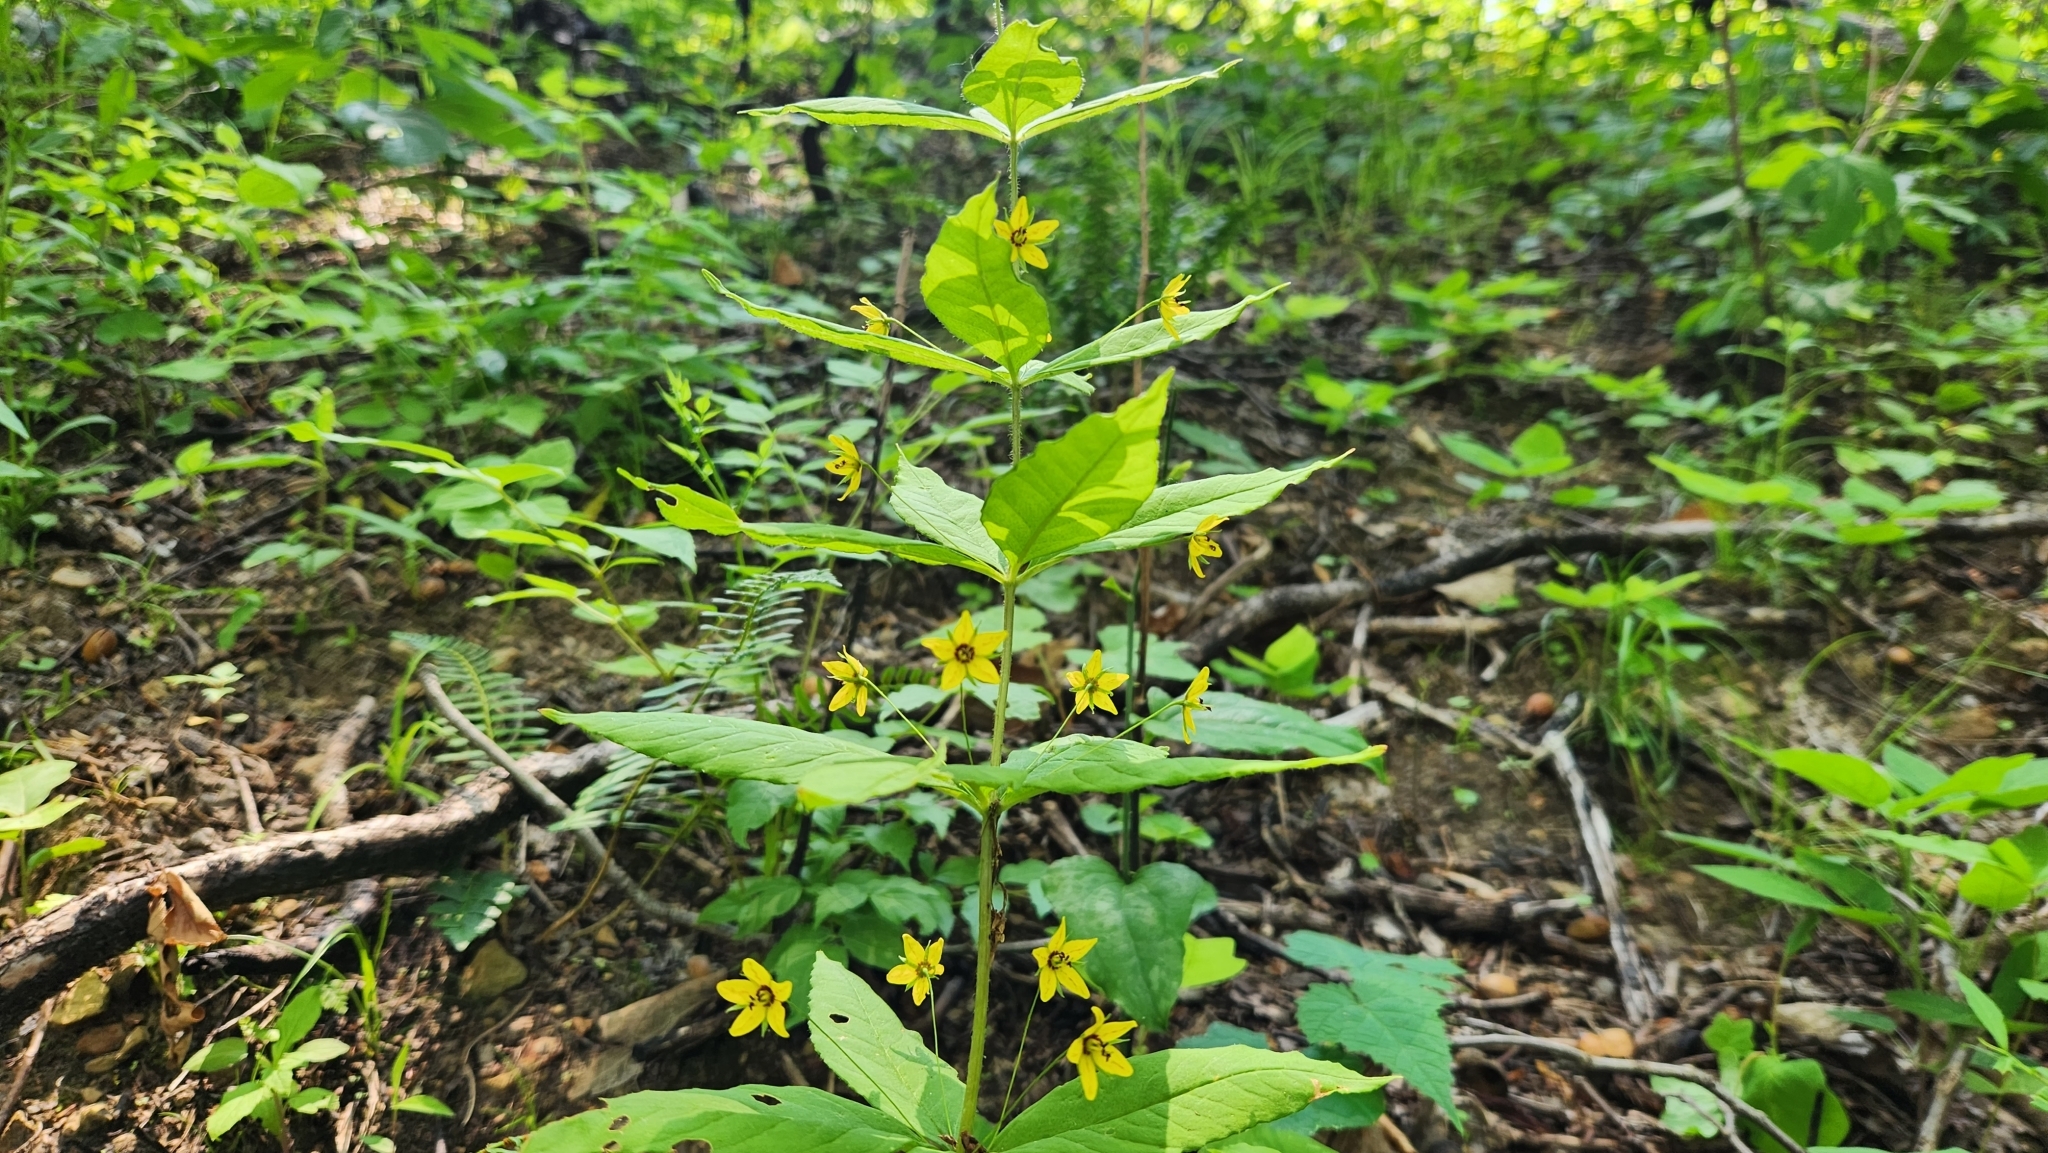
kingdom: Plantae
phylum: Tracheophyta
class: Magnoliopsida
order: Ericales
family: Primulaceae
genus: Lysimachia
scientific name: Lysimachia quadrifolia
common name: Whorled loosestrife
